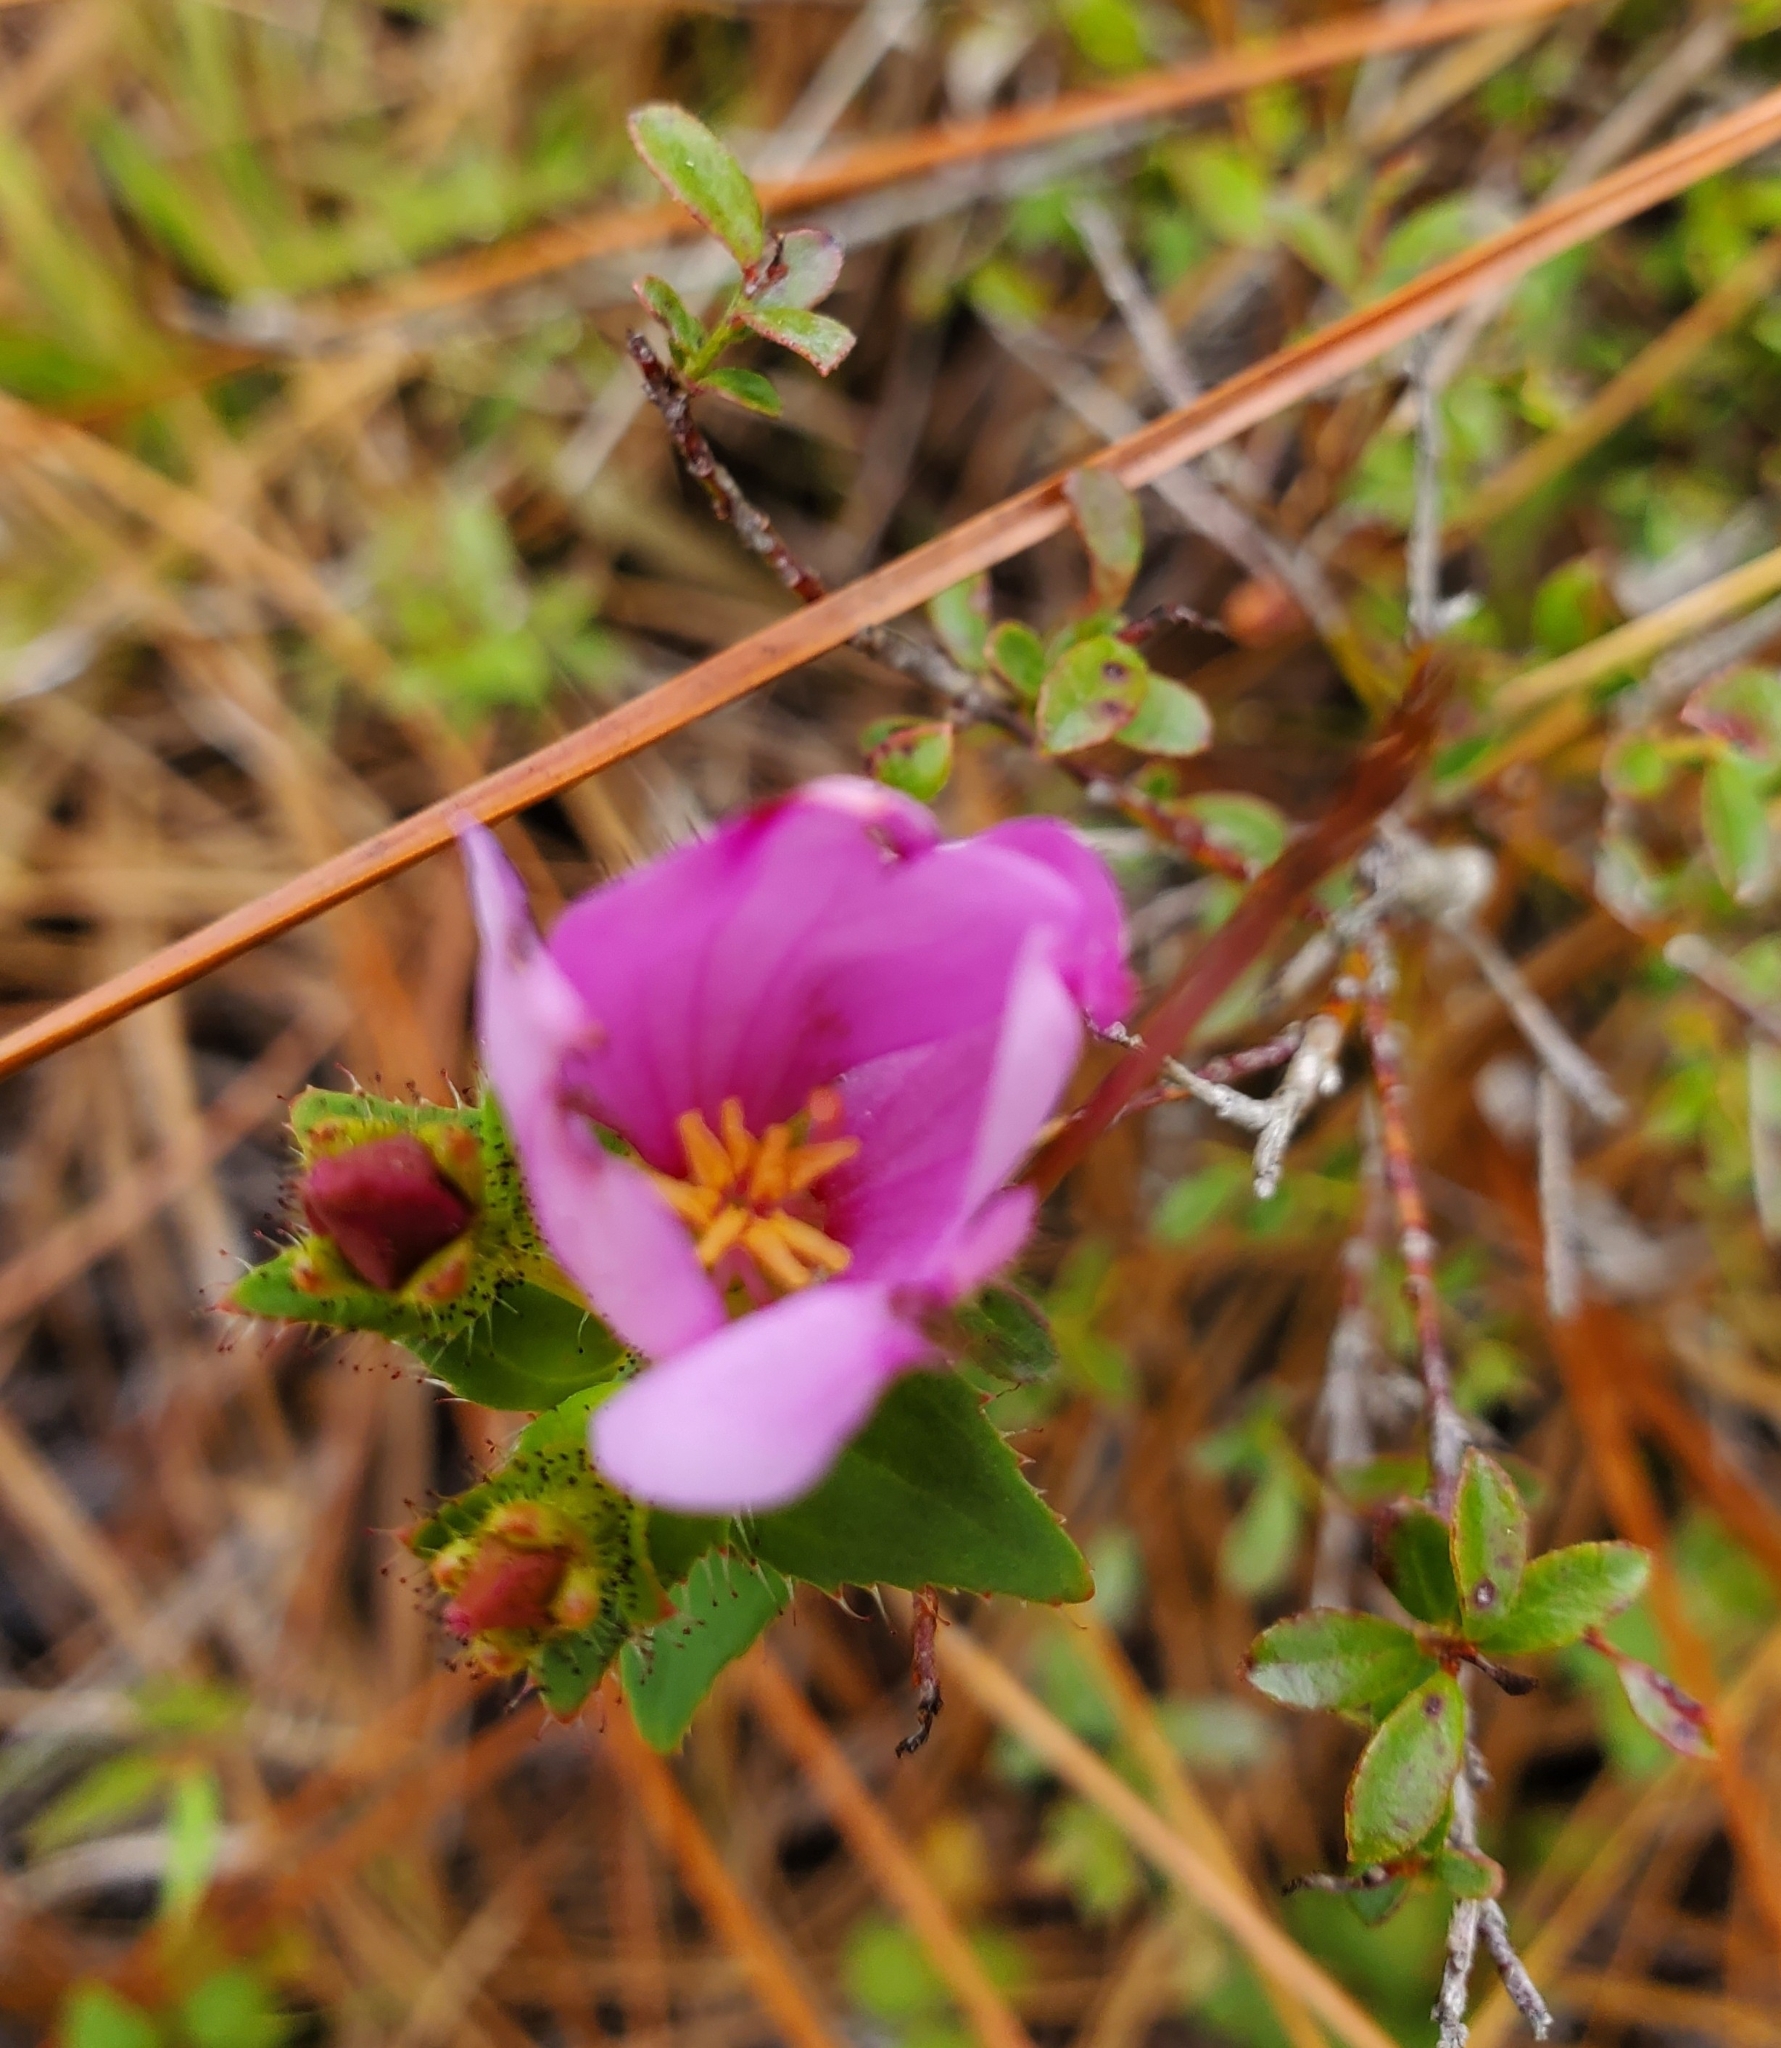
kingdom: Plantae
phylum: Tracheophyta
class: Magnoliopsida
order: Myrtales
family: Melastomataceae
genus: Rhexia
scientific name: Rhexia nuttallii
